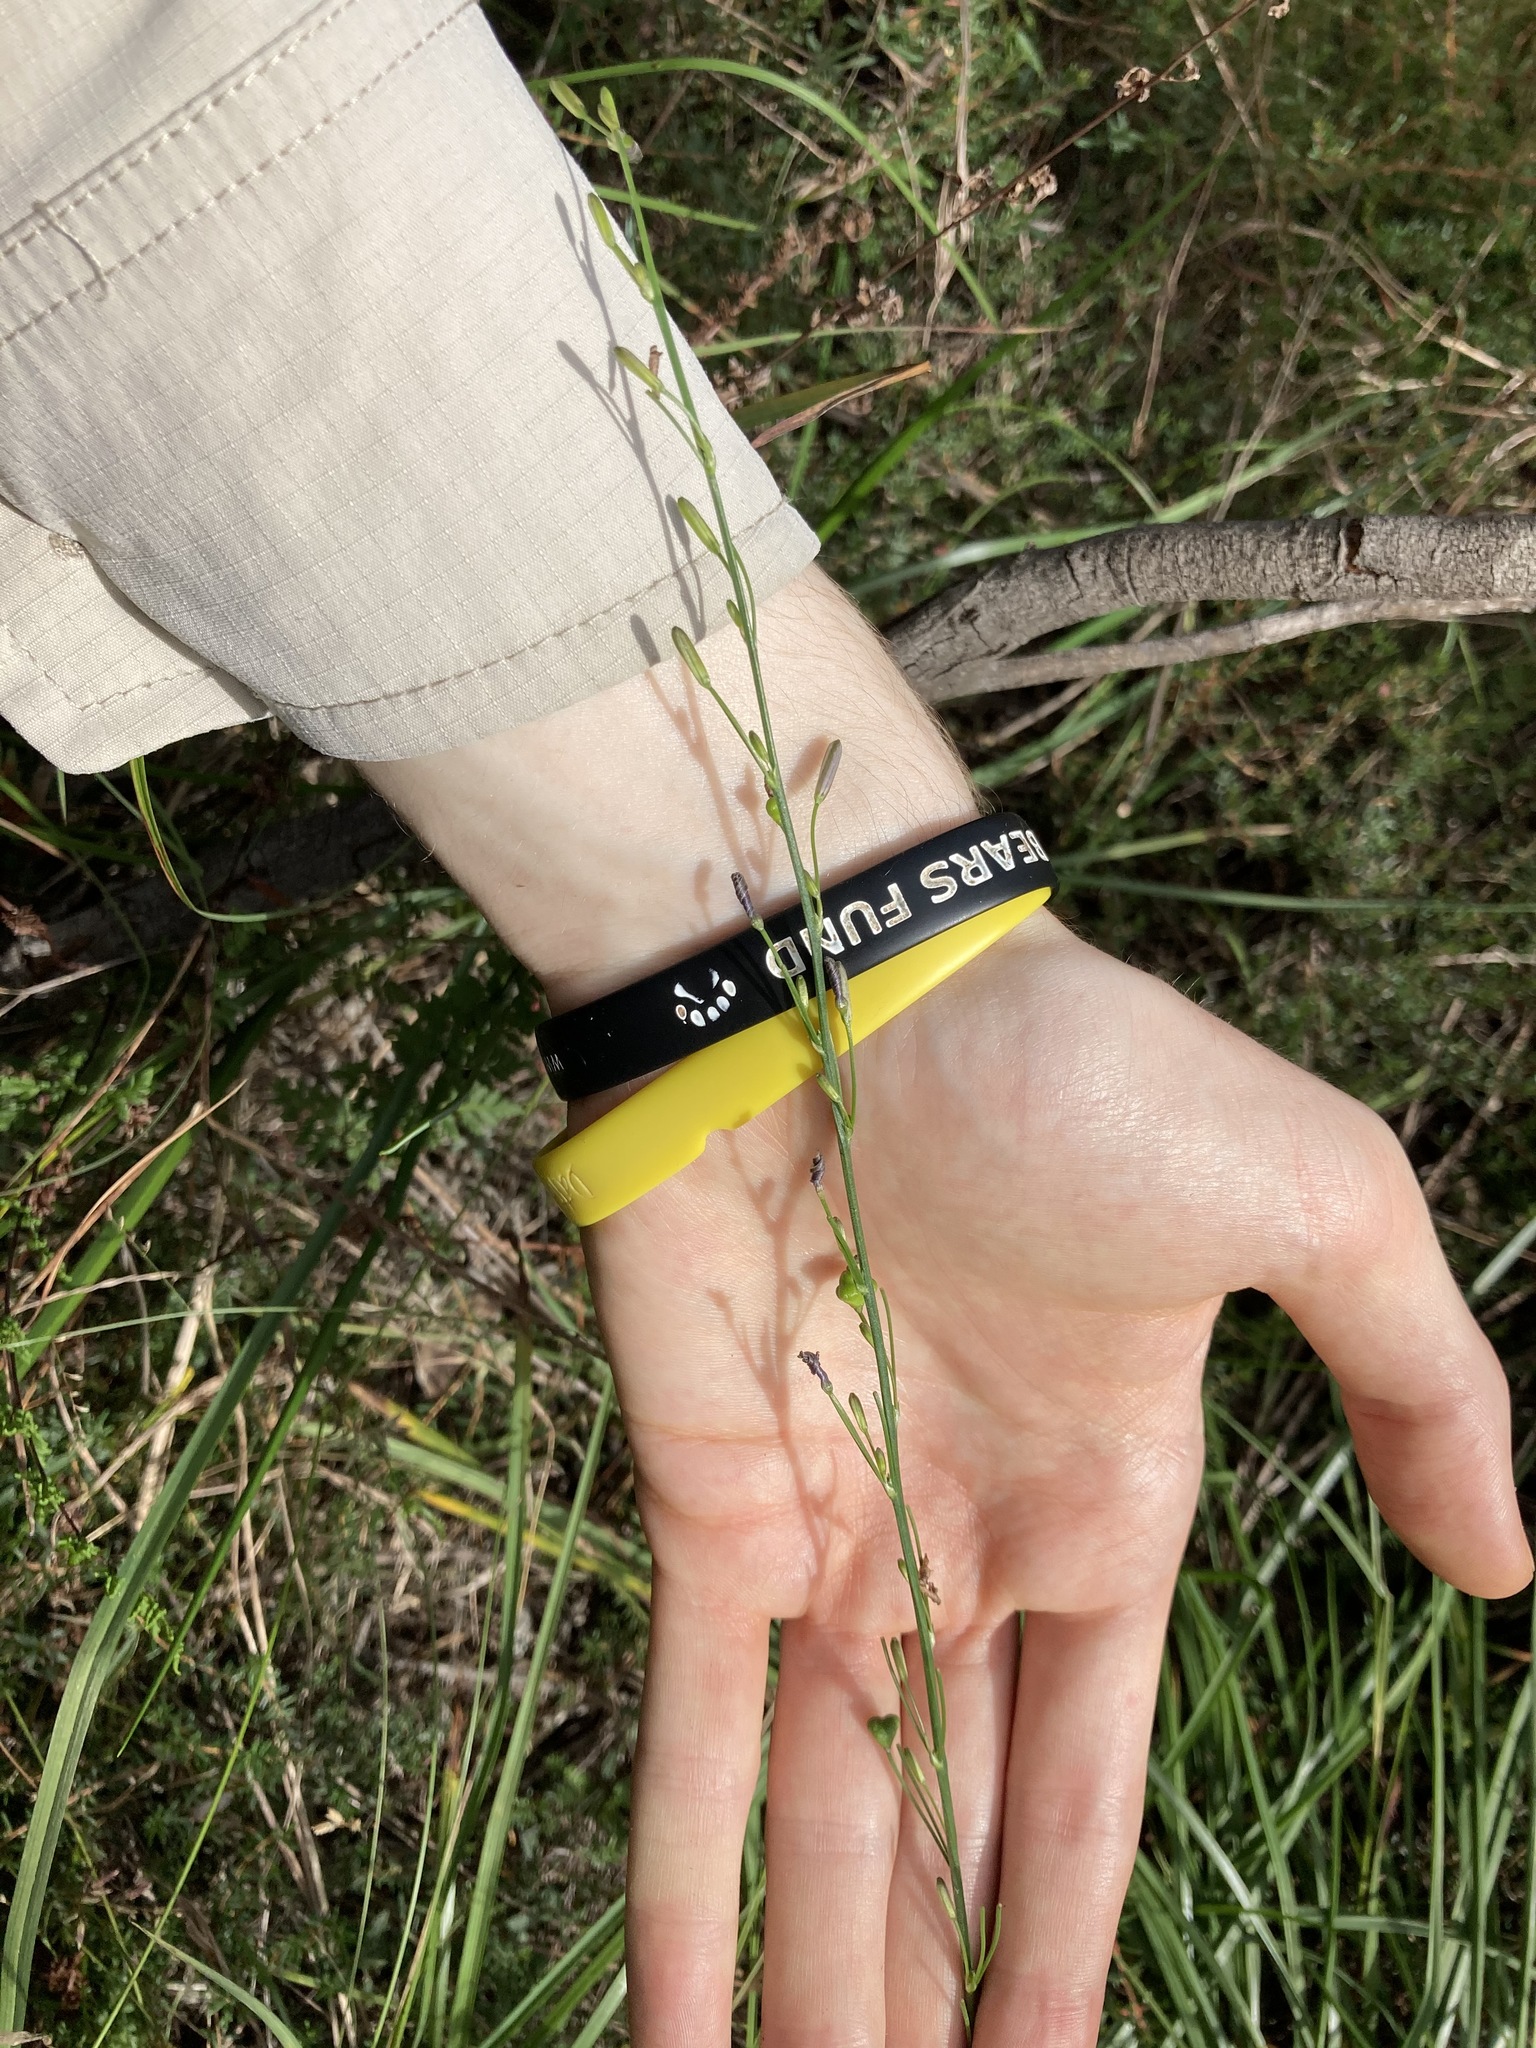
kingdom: Plantae
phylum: Tracheophyta
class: Liliopsida
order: Asparagales
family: Asphodelaceae
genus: Caesia
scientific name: Caesia parviflora
